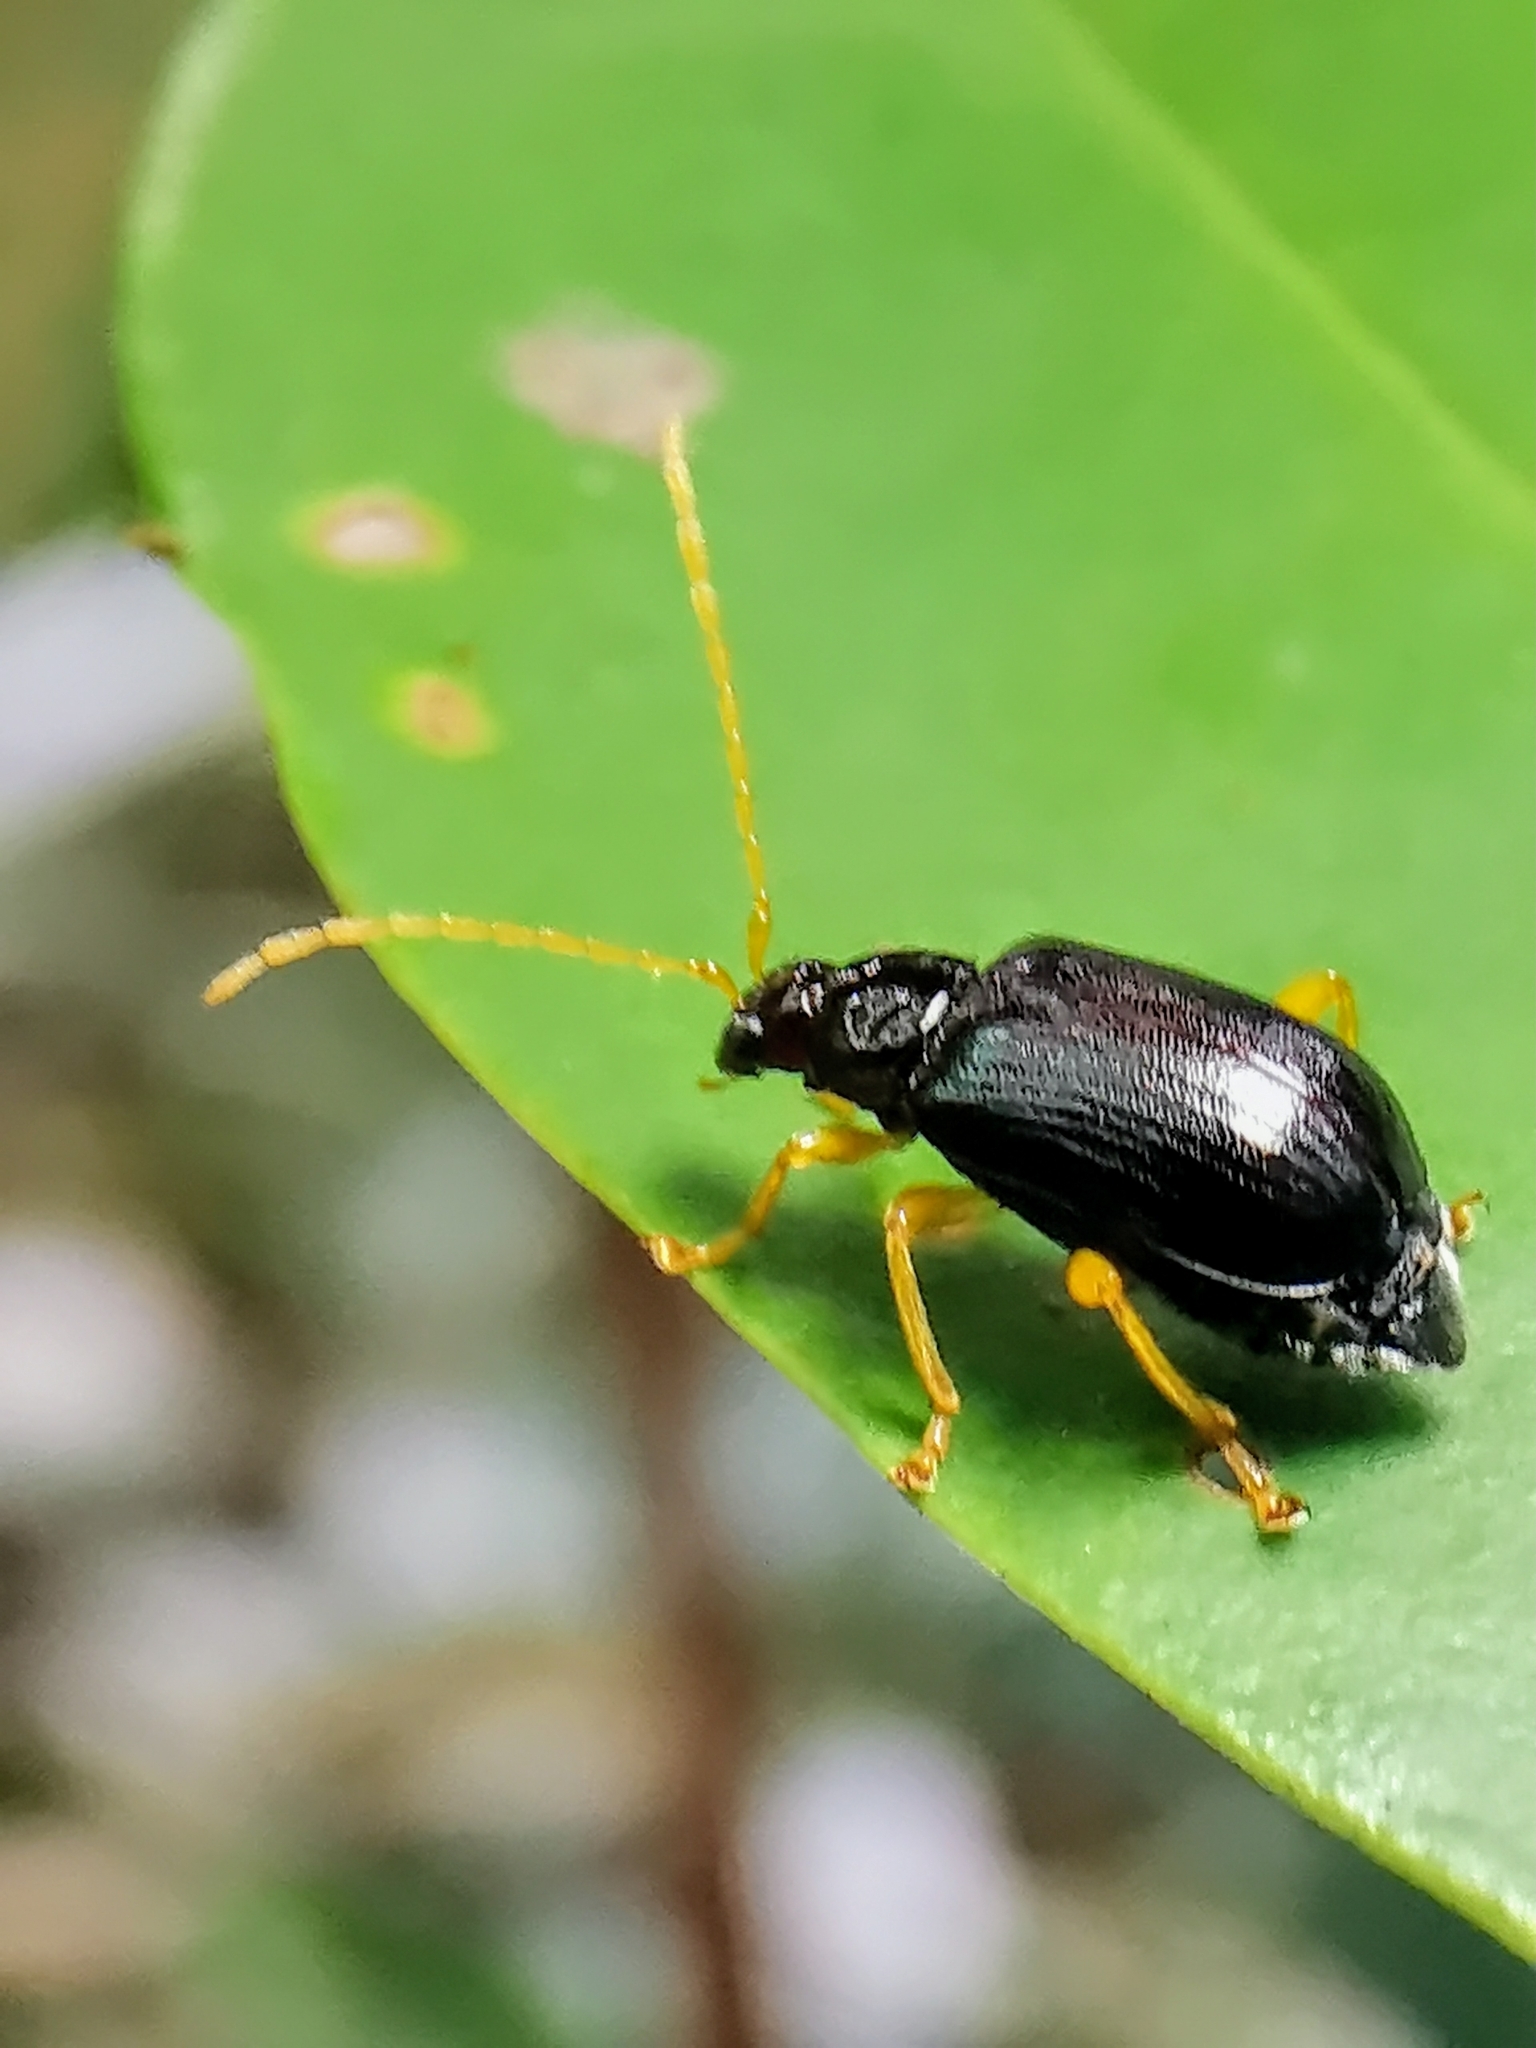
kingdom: Animalia
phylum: Arthropoda
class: Insecta
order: Coleoptera
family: Chrysomelidae
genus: Taumacera
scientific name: Taumacera insignis
